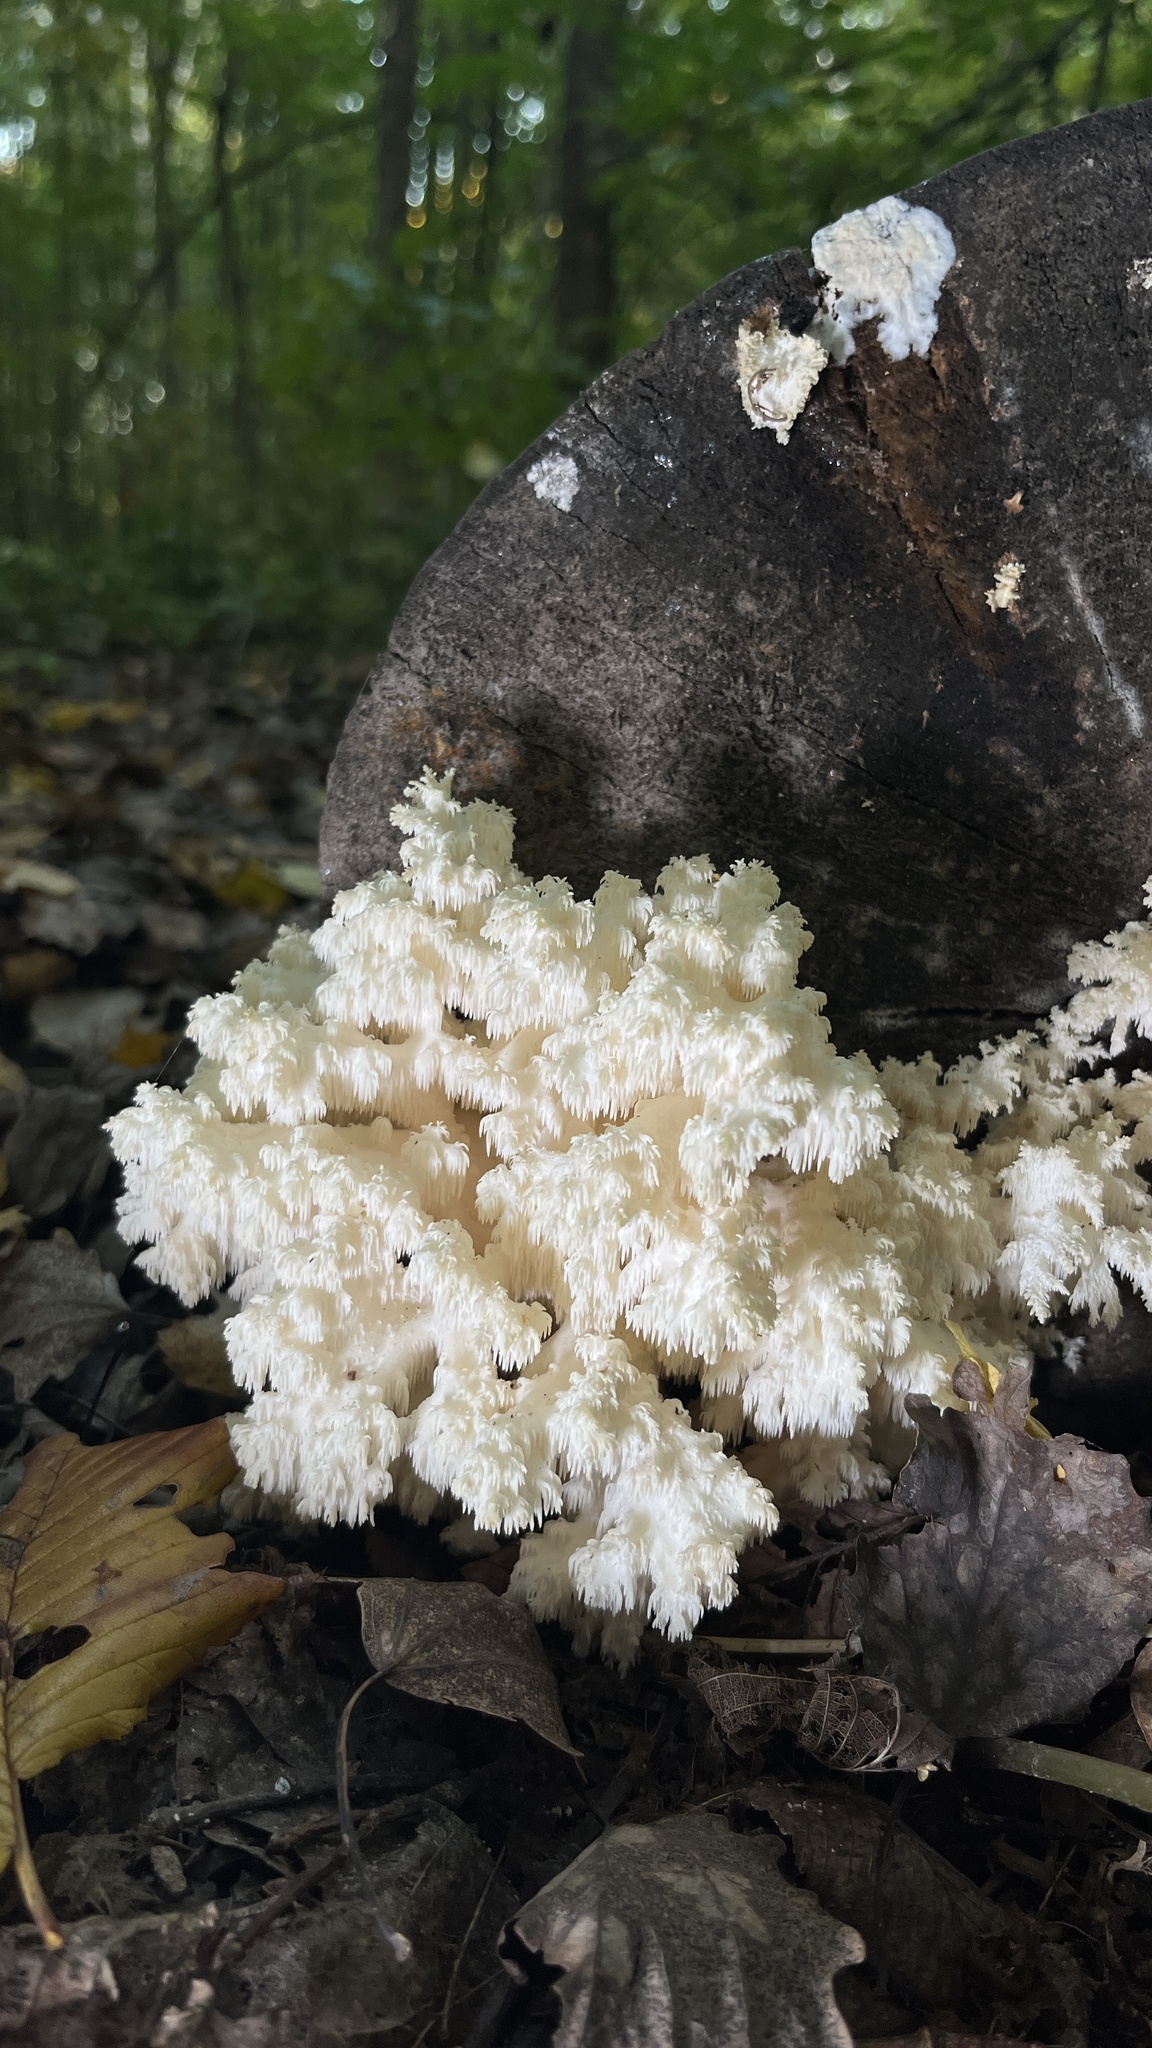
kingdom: Fungi
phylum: Basidiomycota
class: Agaricomycetes
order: Russulales
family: Hericiaceae
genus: Hericium
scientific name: Hericium coralloides
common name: Coral tooth
